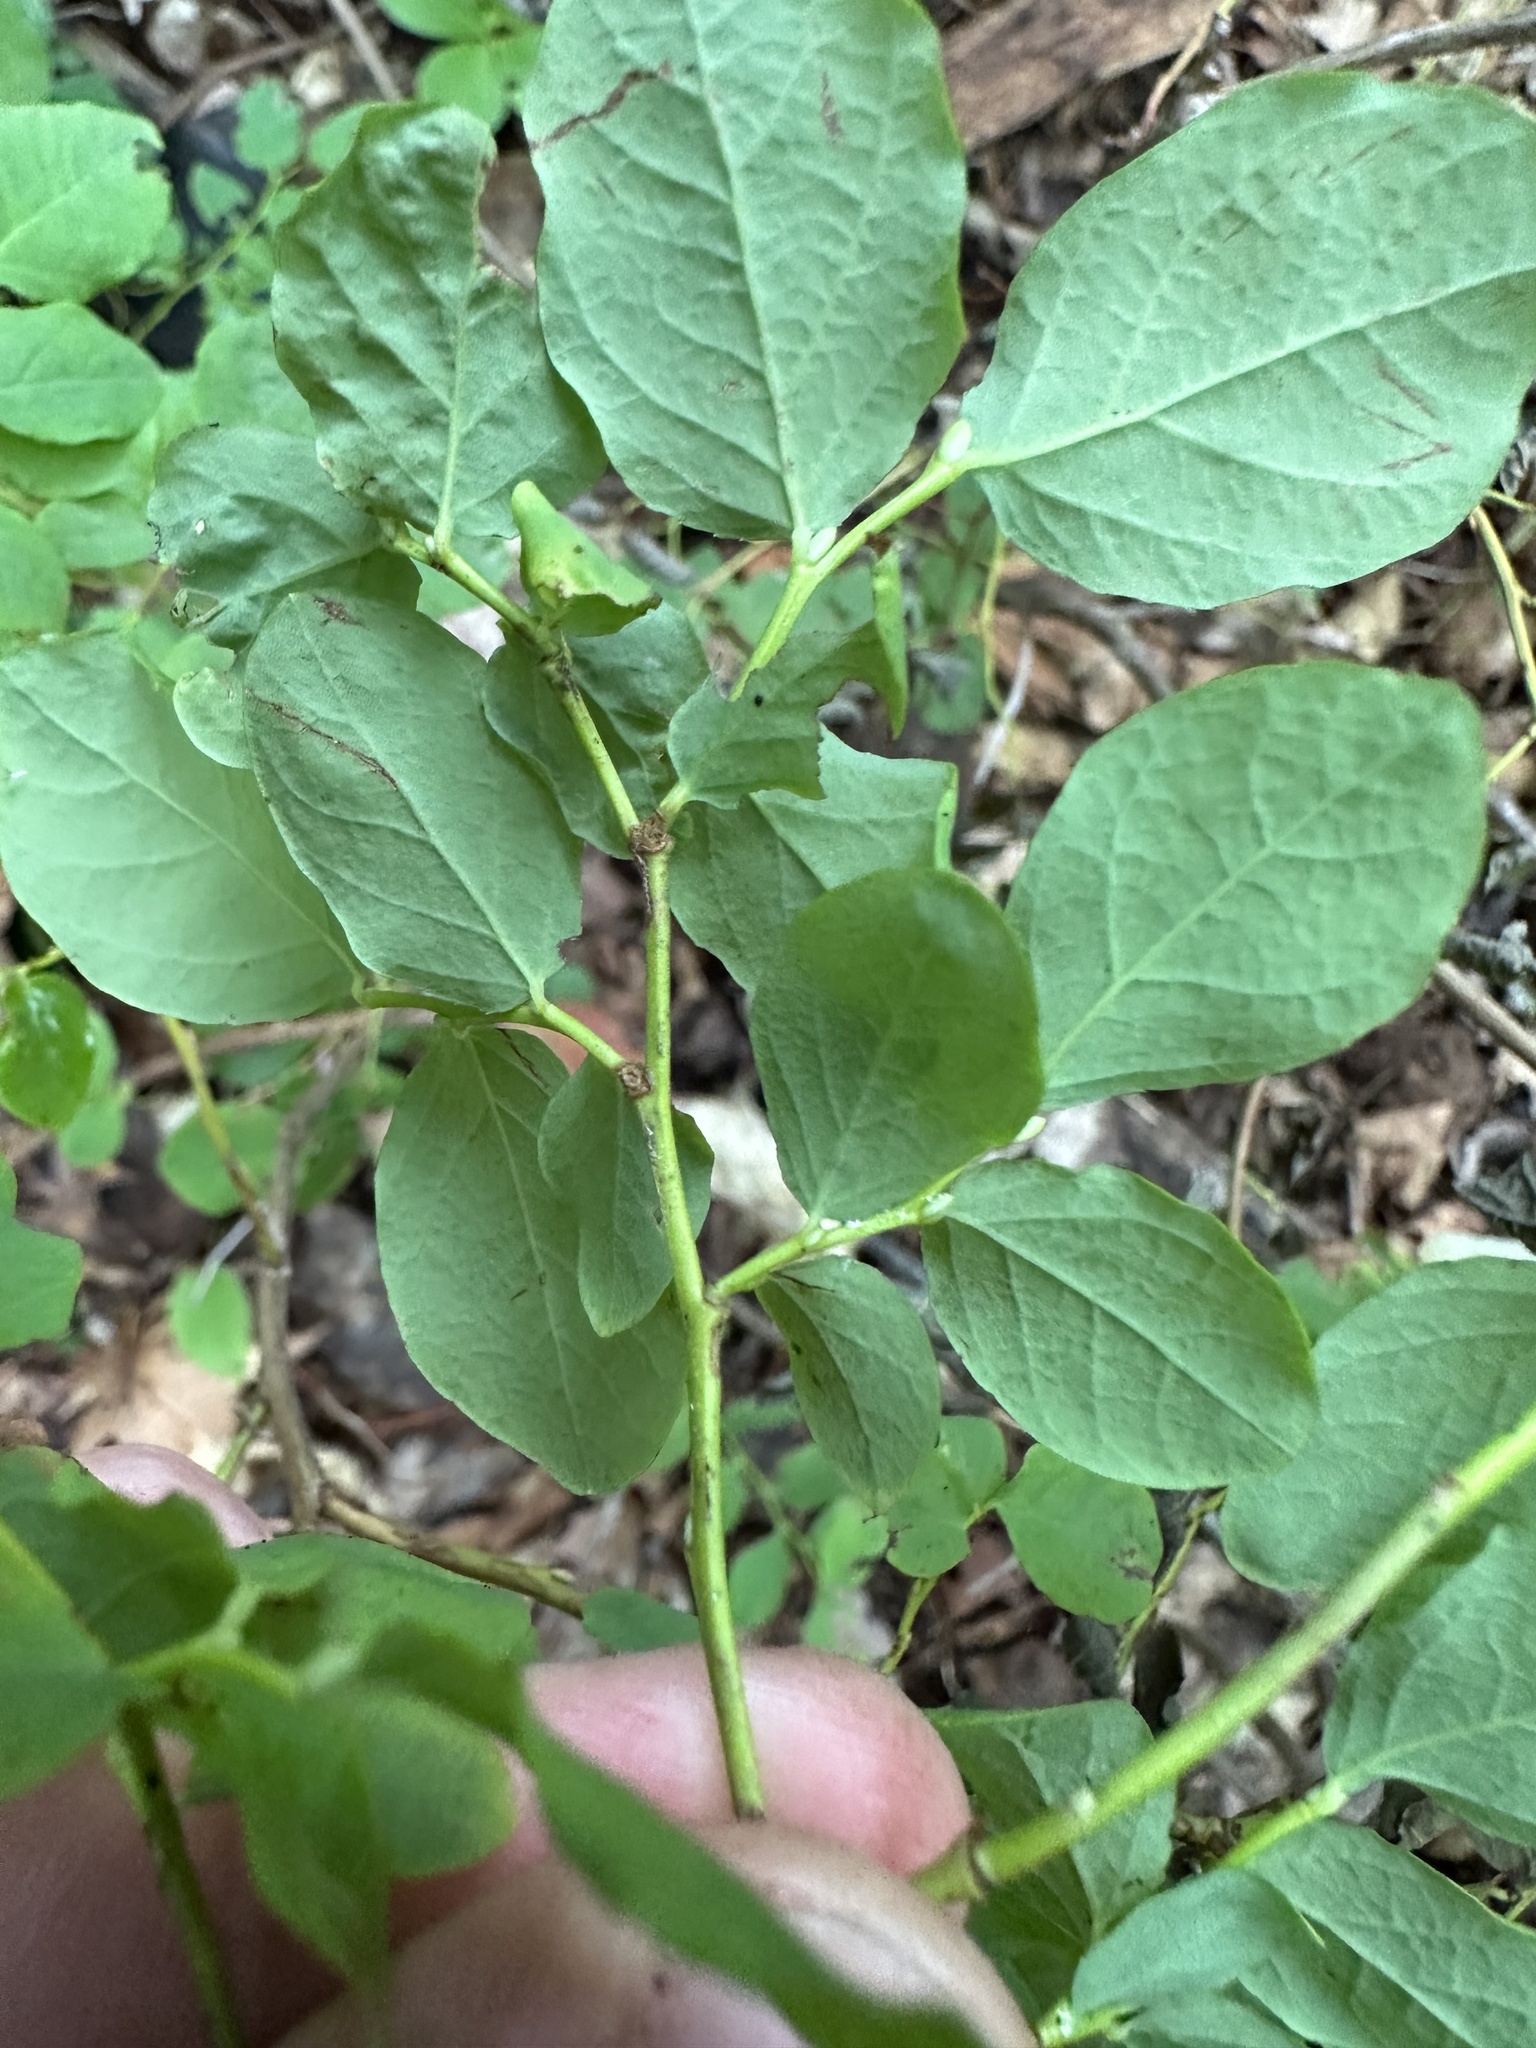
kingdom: Plantae
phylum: Tracheophyta
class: Magnoliopsida
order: Ericales
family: Ericaceae
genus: Vaccinium
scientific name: Vaccinium ovalifolium
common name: Early blueberry
